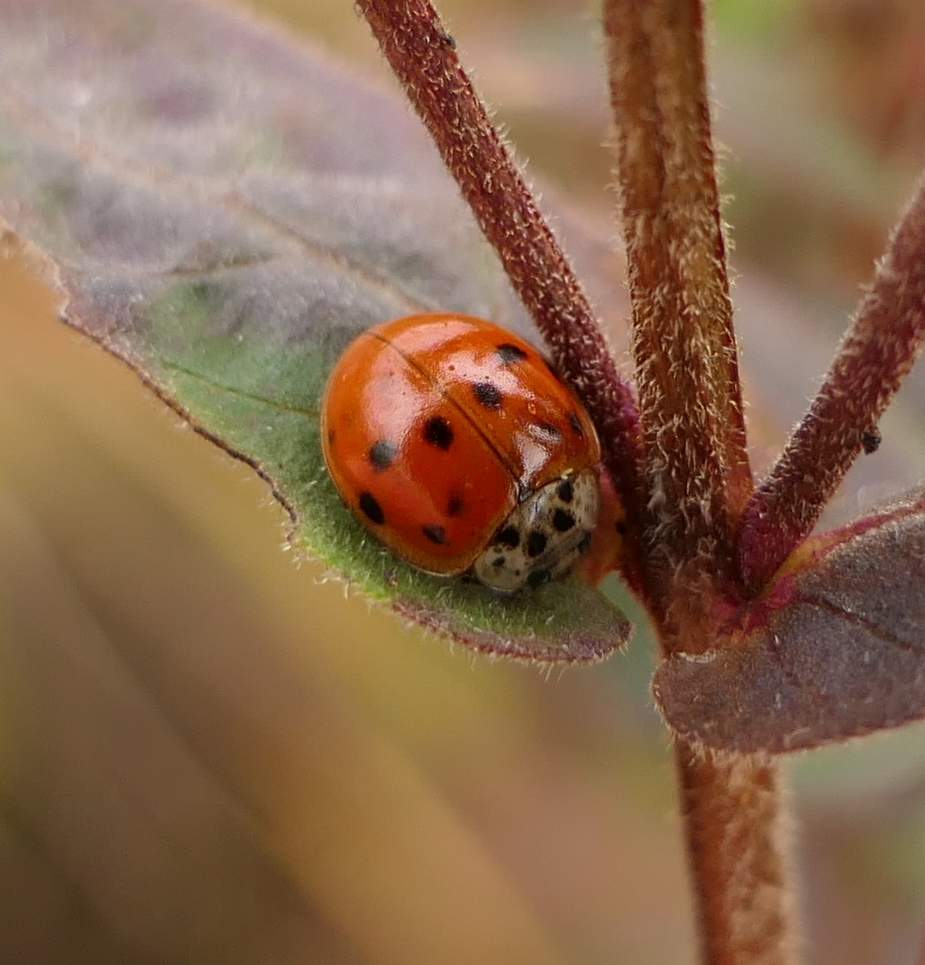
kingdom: Animalia
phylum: Arthropoda
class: Insecta
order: Coleoptera
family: Coccinellidae
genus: Harmonia
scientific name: Harmonia axyridis
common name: Harlequin ladybird
